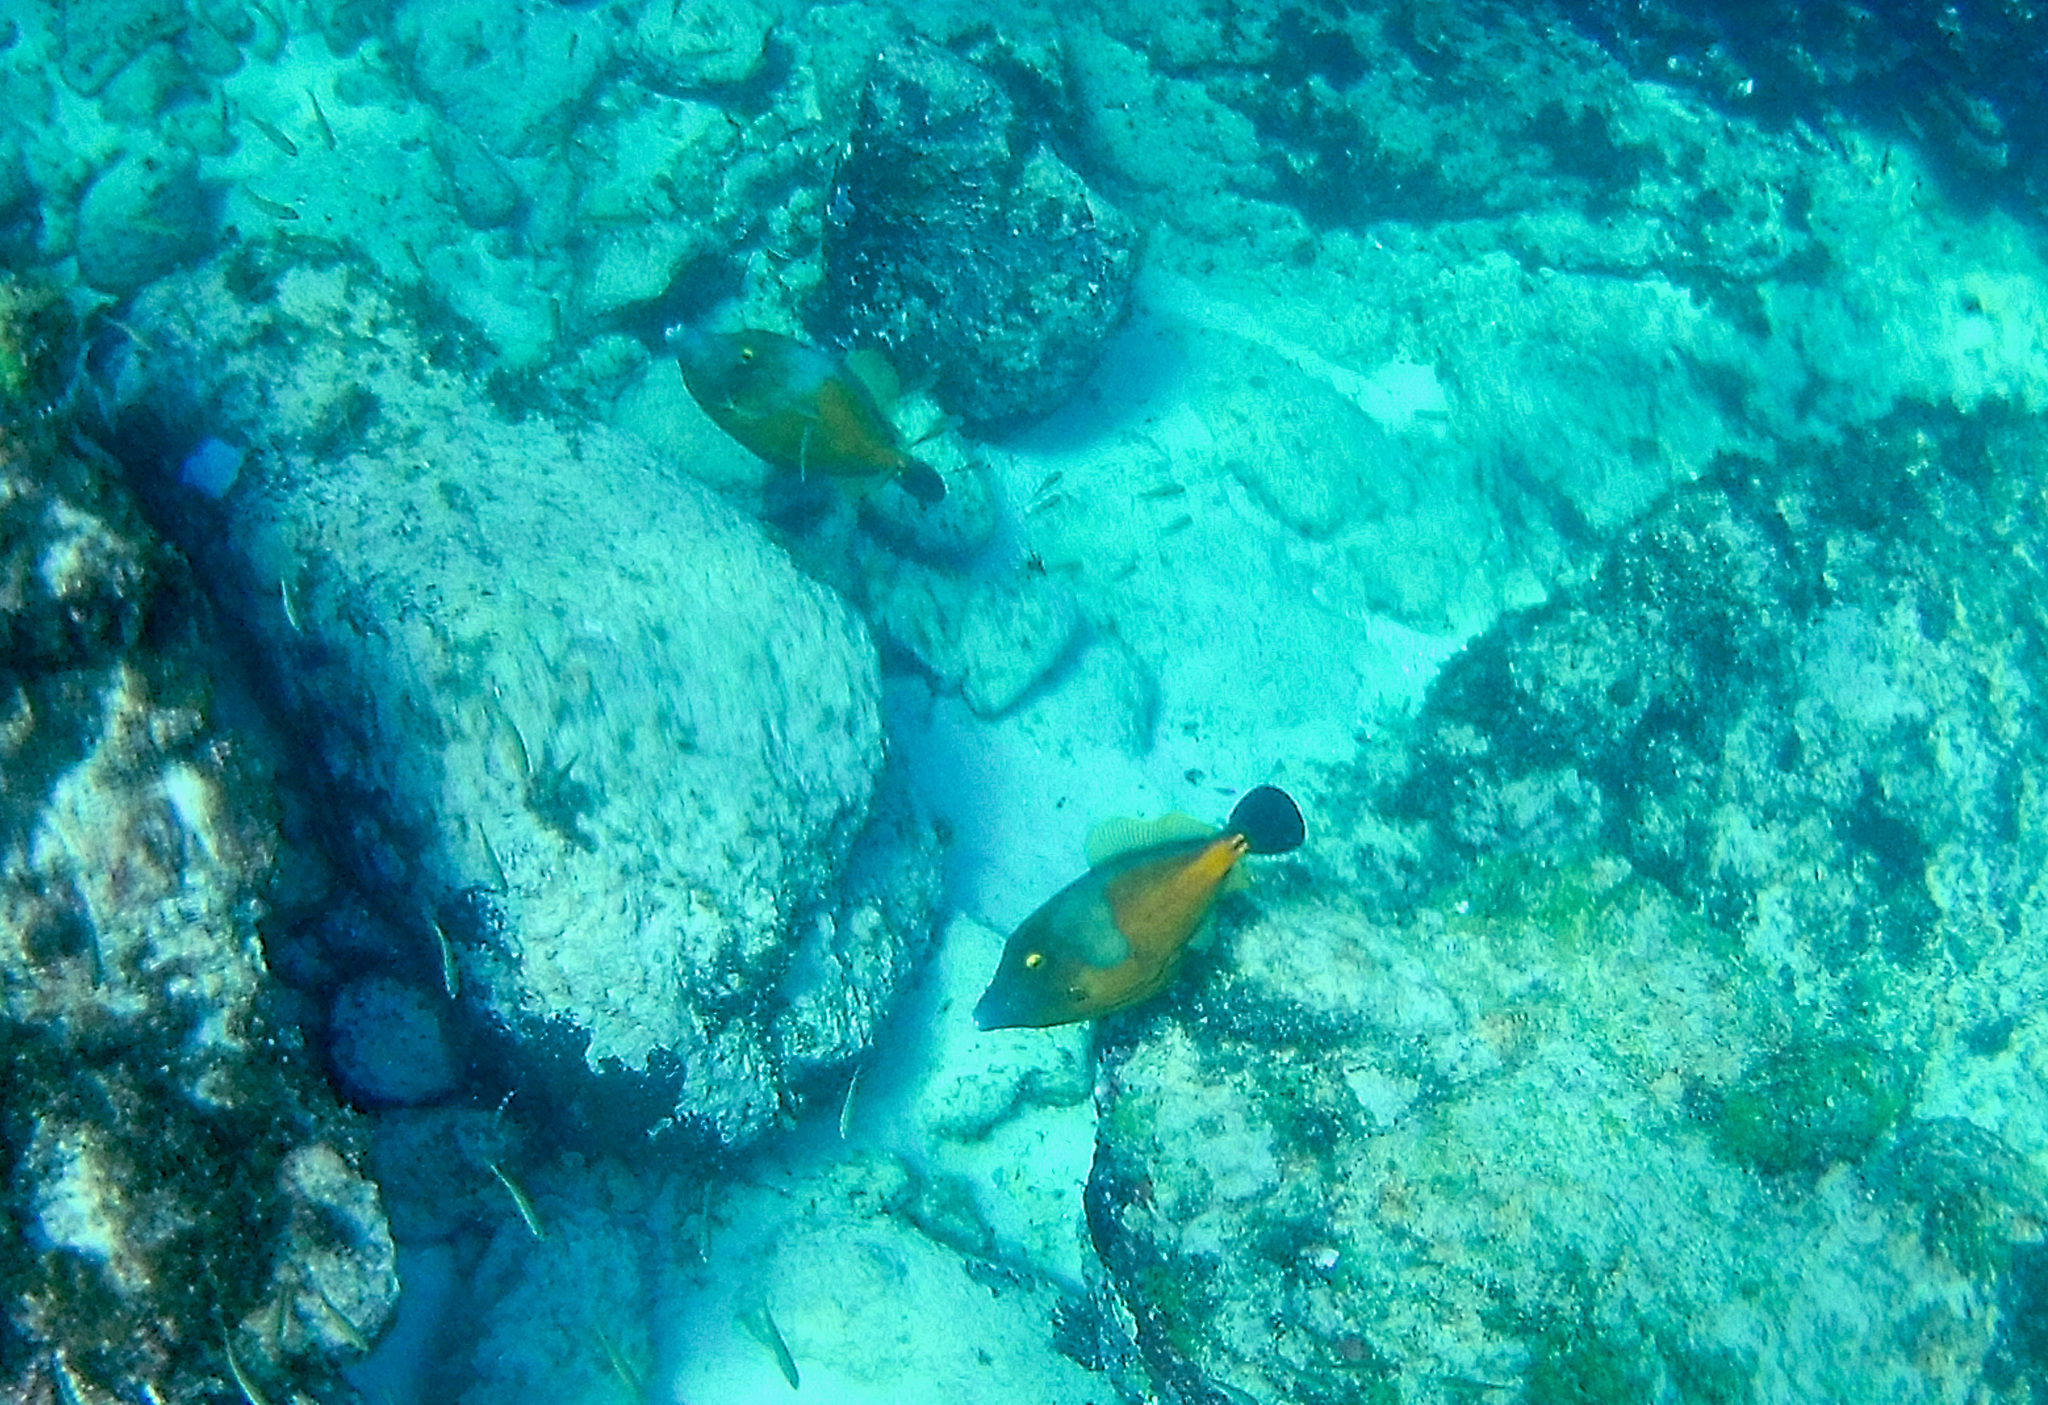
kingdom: Animalia
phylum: Chordata
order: Tetraodontiformes
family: Monacanthidae
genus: Cantherhines
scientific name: Cantherhines macrocerus
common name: Whitespotted filefish
